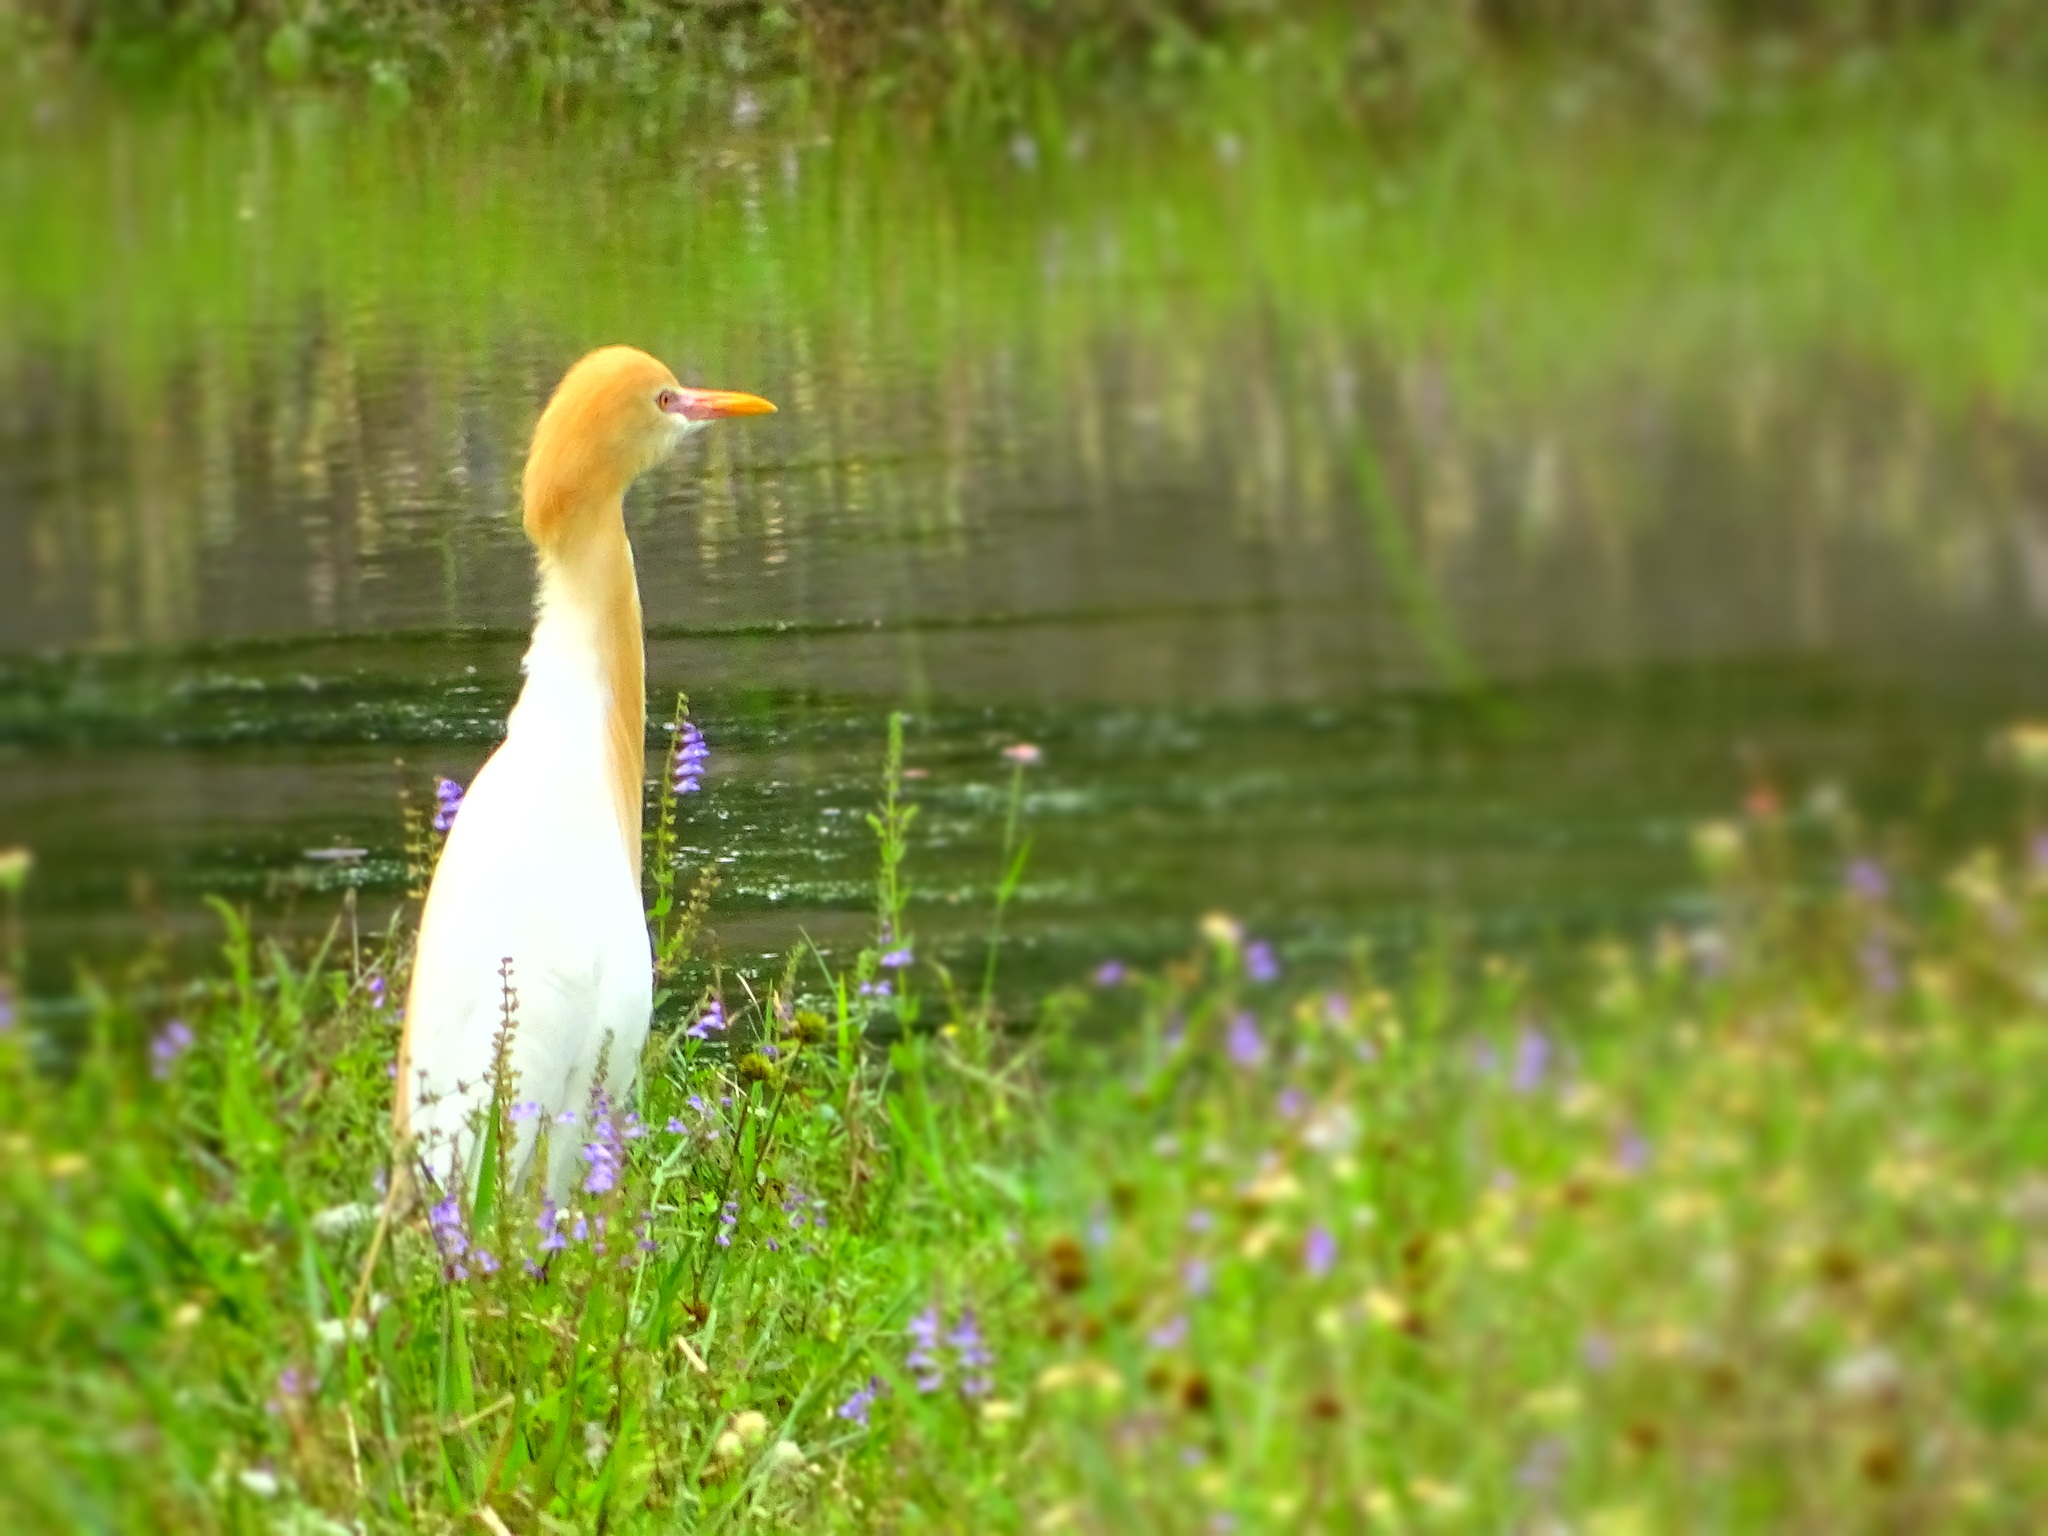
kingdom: Animalia
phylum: Chordata
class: Aves
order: Pelecaniformes
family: Ardeidae
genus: Bubulcus
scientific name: Bubulcus coromandus
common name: Eastern cattle egret
